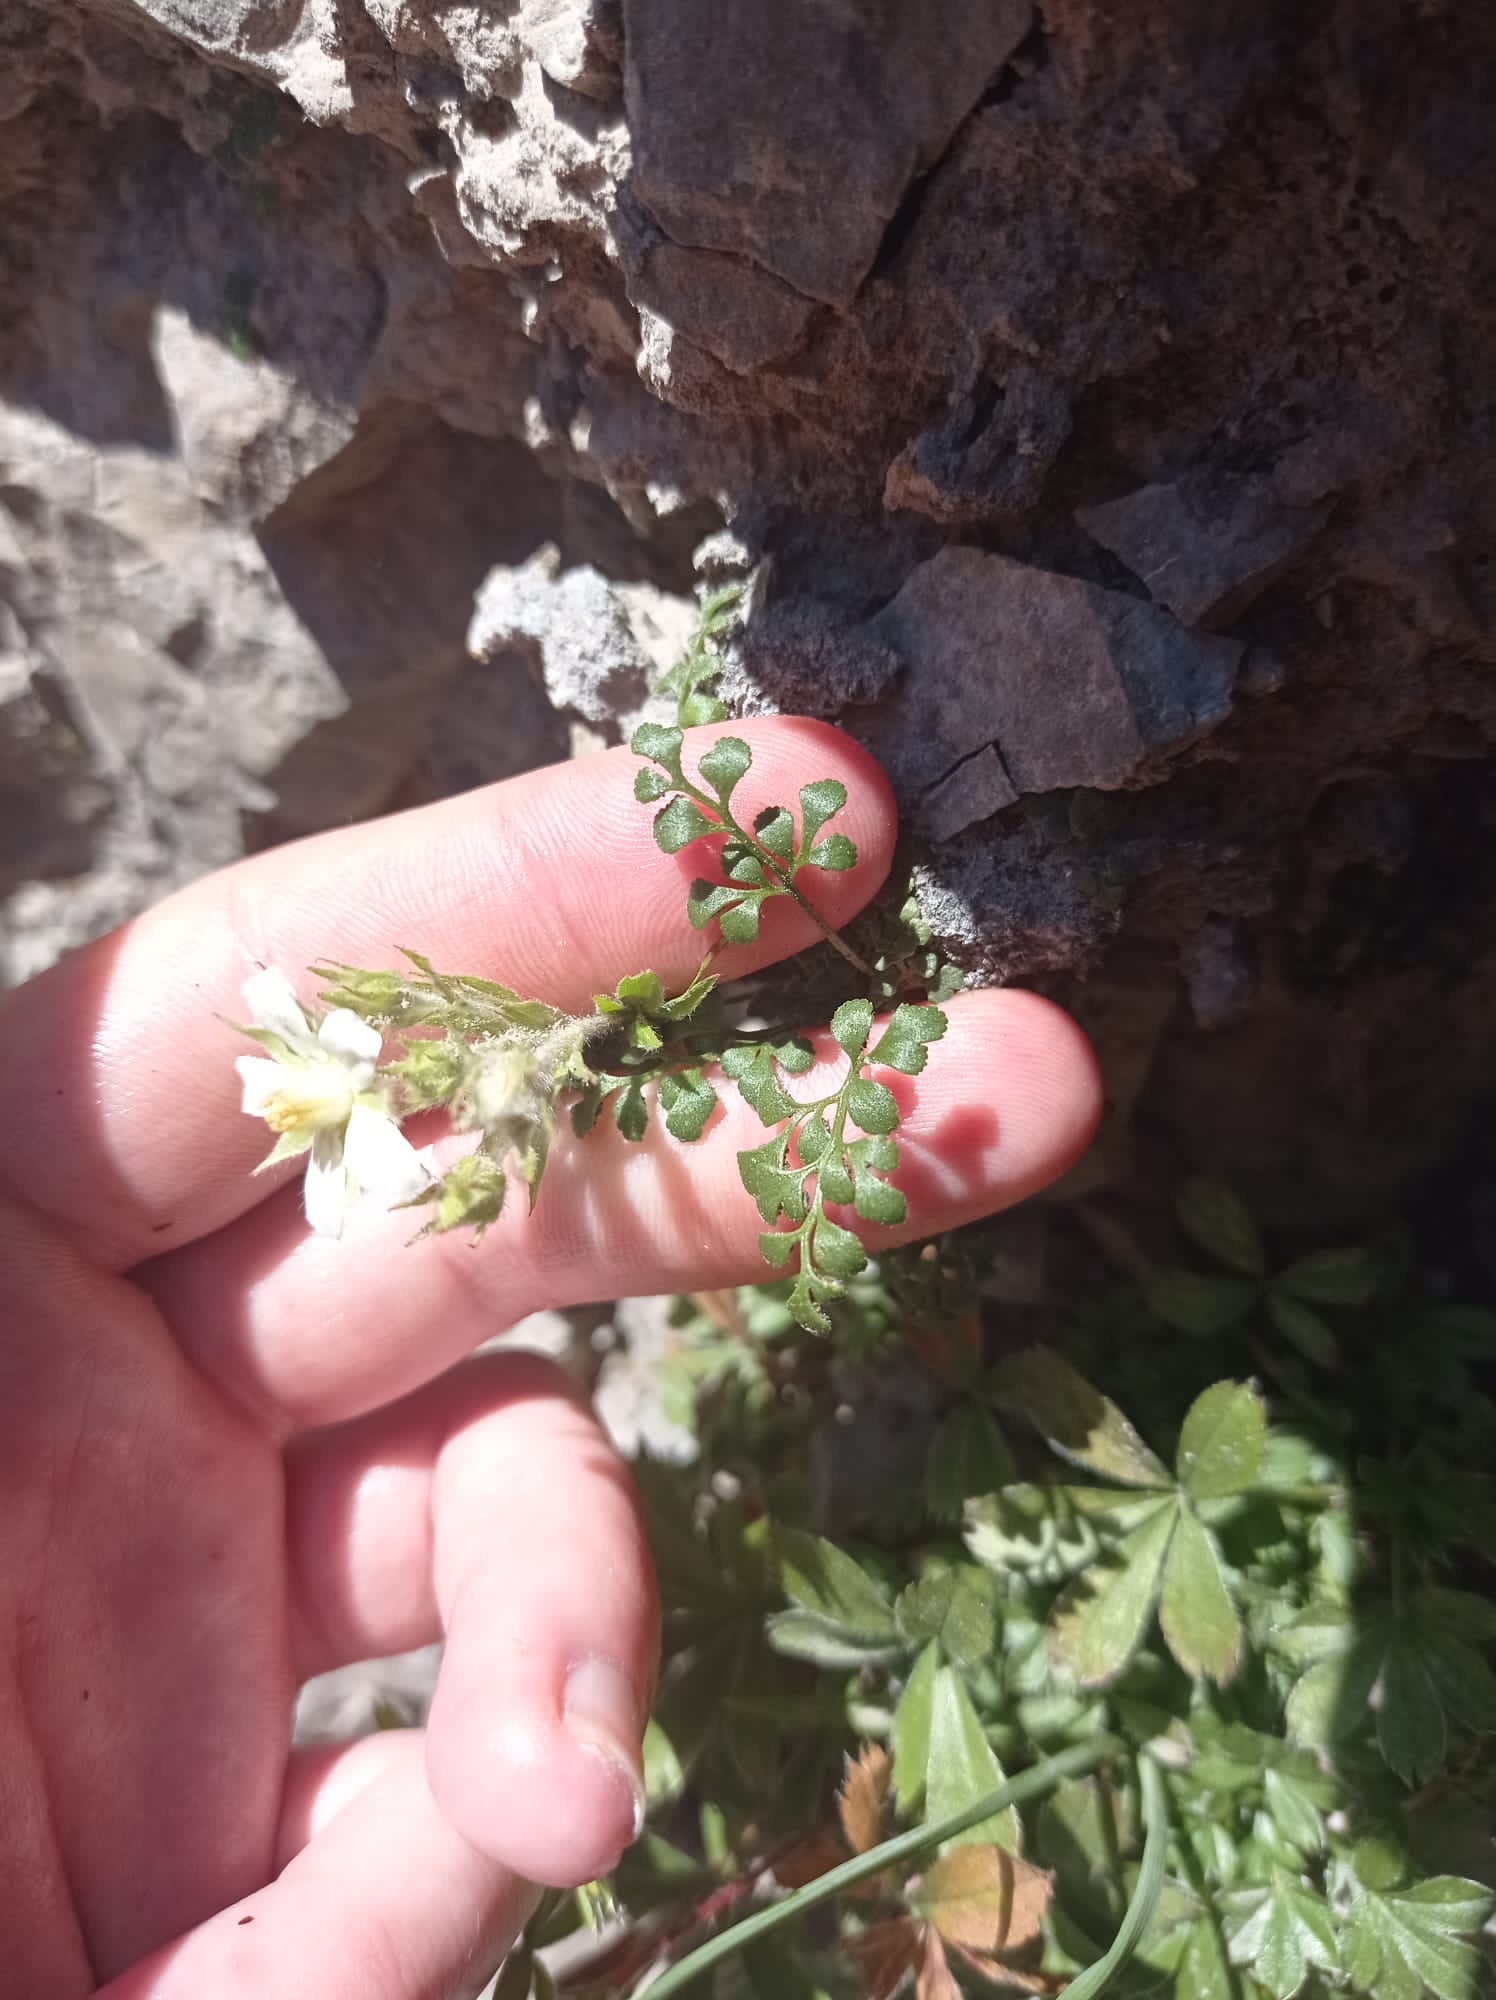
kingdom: Plantae
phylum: Tracheophyta
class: Magnoliopsida
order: Rosales
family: Rosaceae
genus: Potentilla
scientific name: Potentilla caulescens
